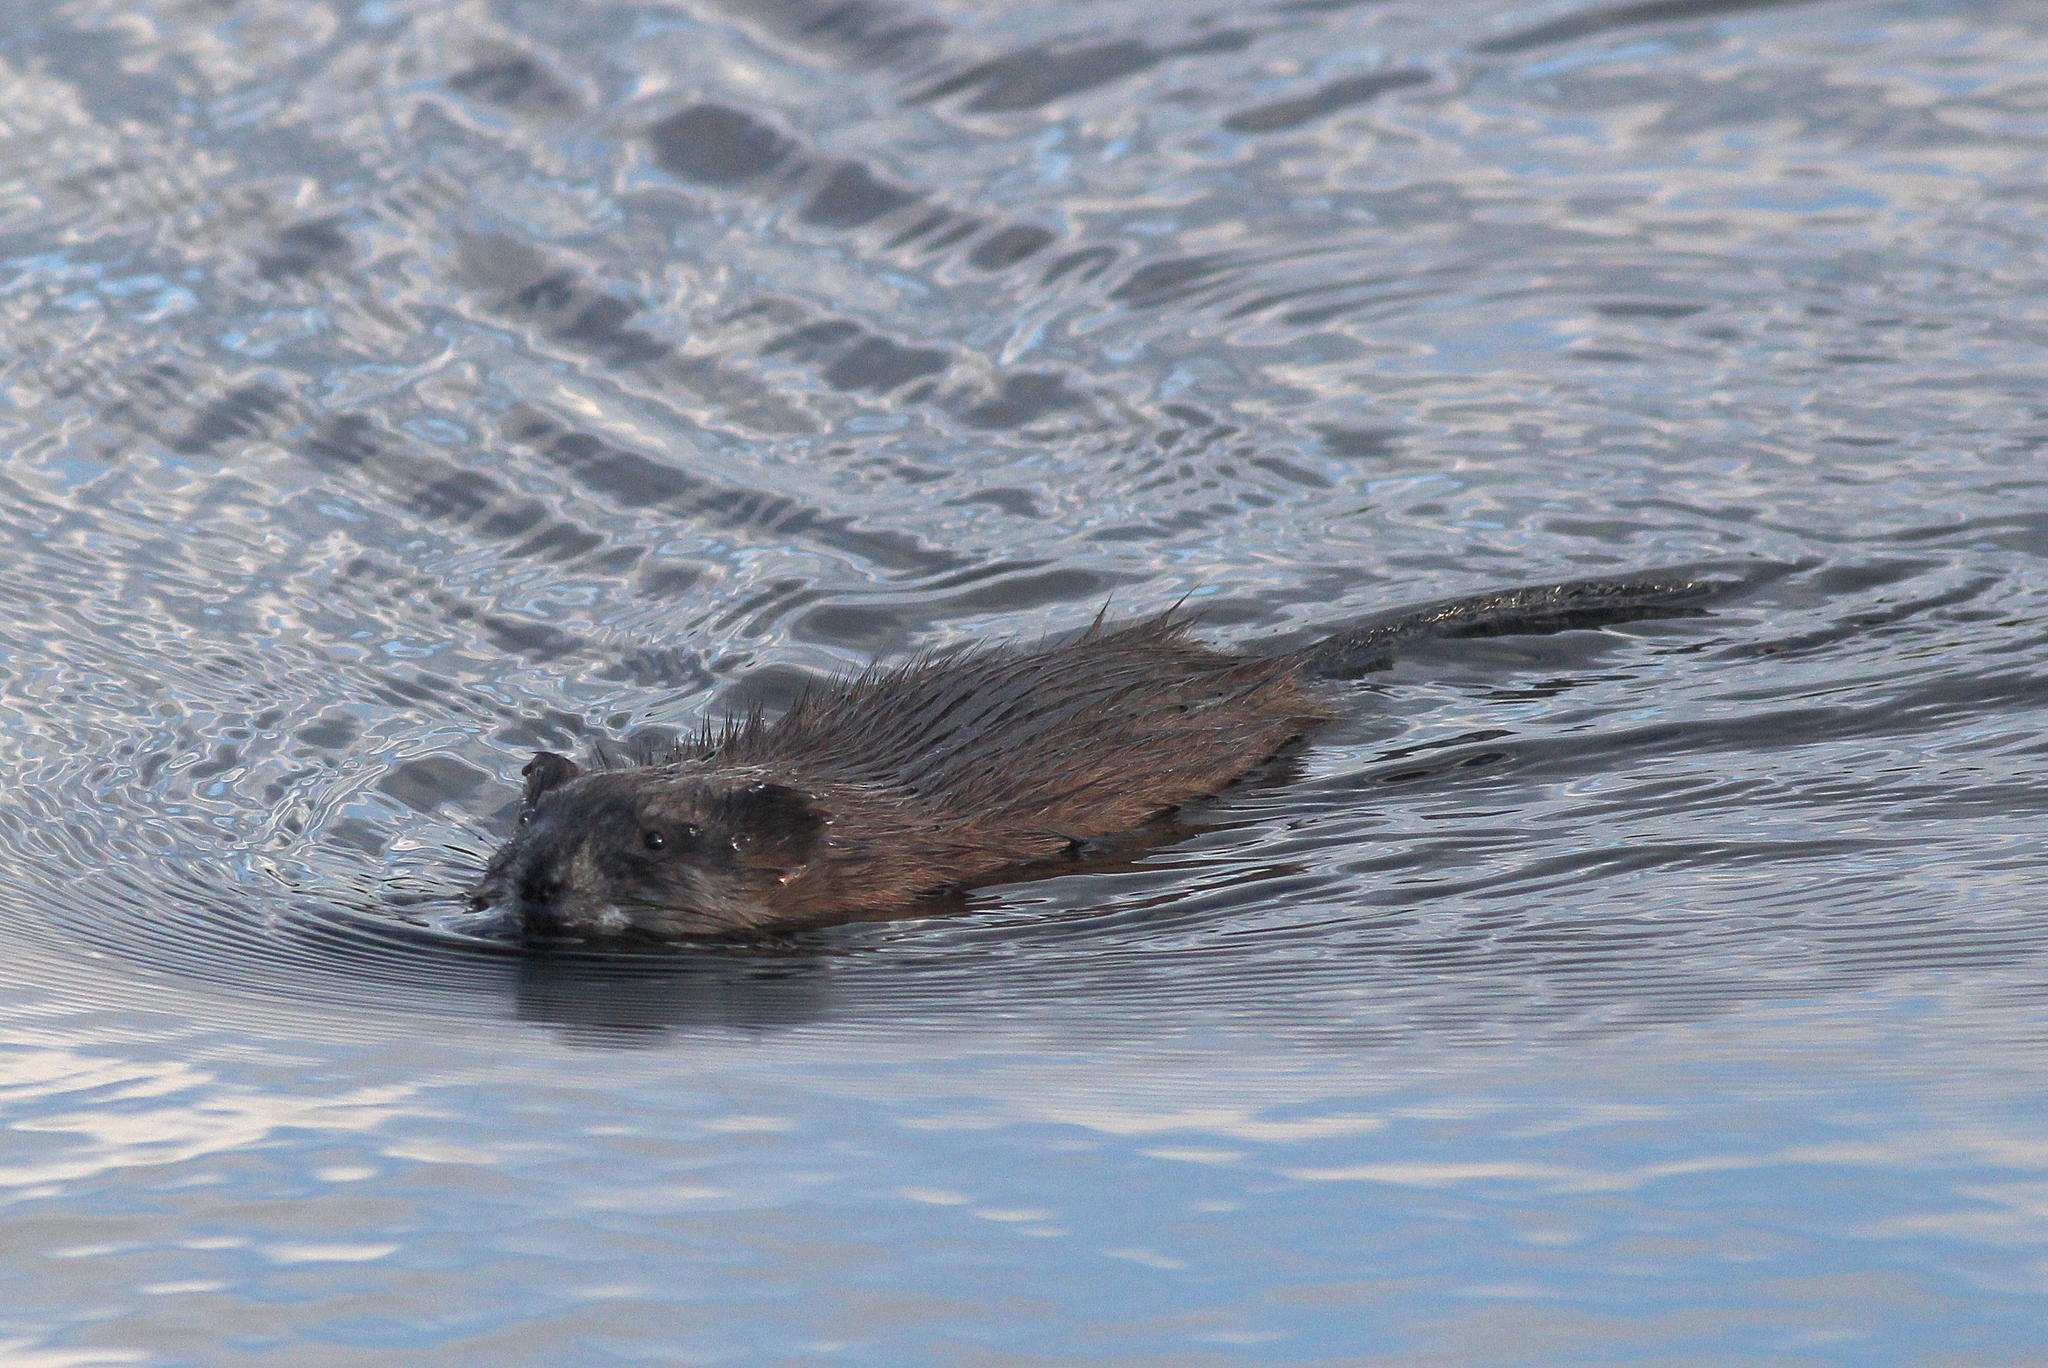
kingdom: Animalia
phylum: Chordata
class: Mammalia
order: Rodentia
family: Cricetidae
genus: Ondatra
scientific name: Ondatra zibethicus
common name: Muskrat
